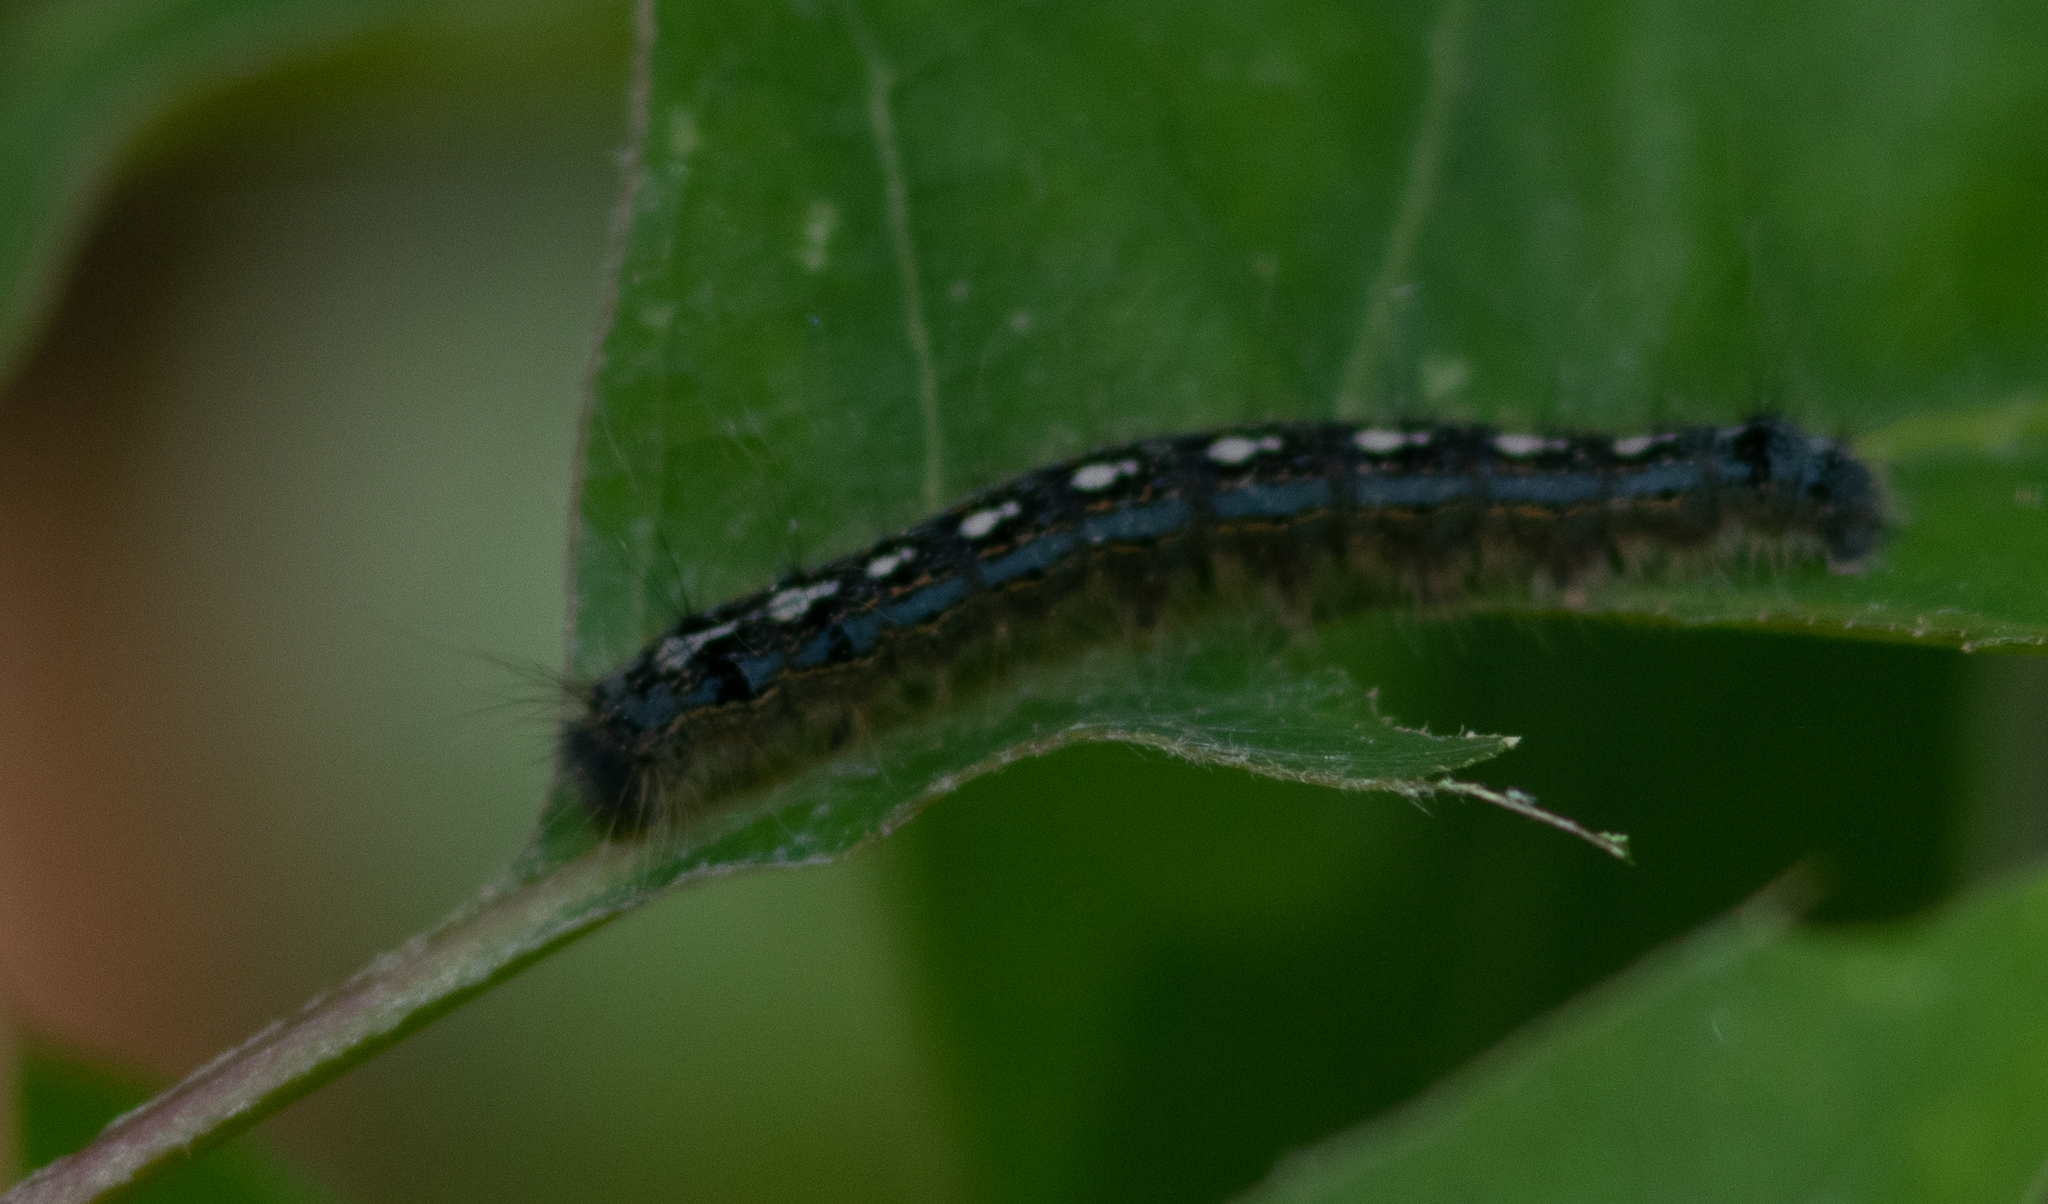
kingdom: Animalia
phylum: Arthropoda
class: Insecta
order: Lepidoptera
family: Lasiocampidae
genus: Malacosoma
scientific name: Malacosoma disstria
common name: Forest tent caterpillar
